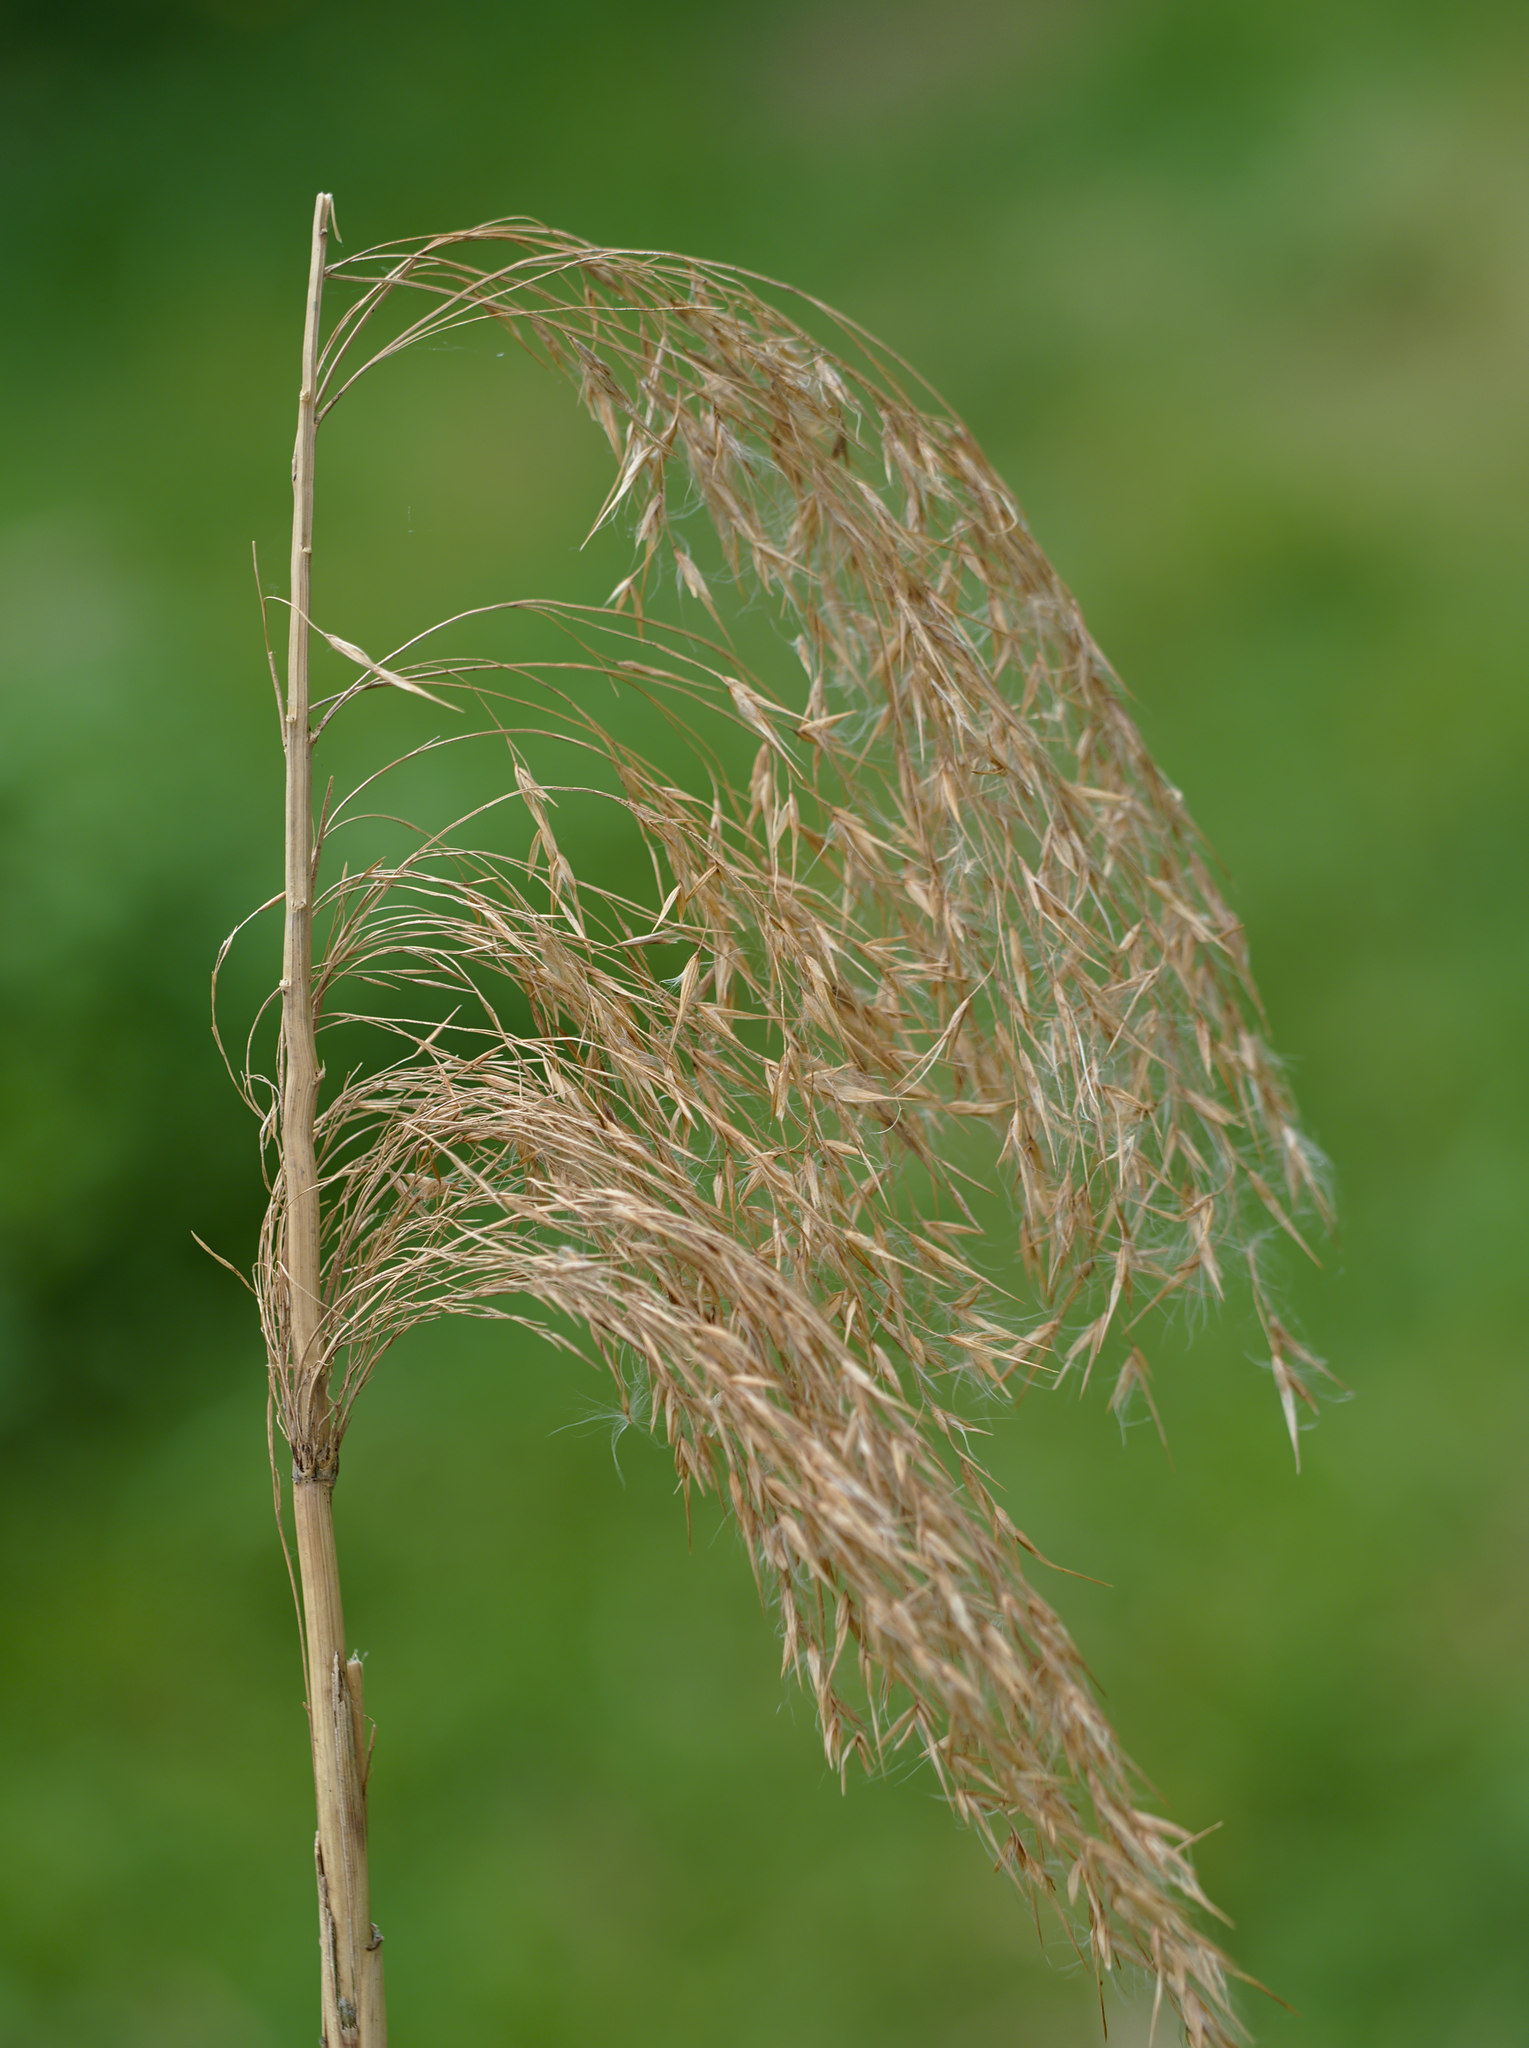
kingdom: Plantae
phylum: Tracheophyta
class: Liliopsida
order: Poales
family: Poaceae
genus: Phragmites
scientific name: Phragmites australis
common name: Common reed
